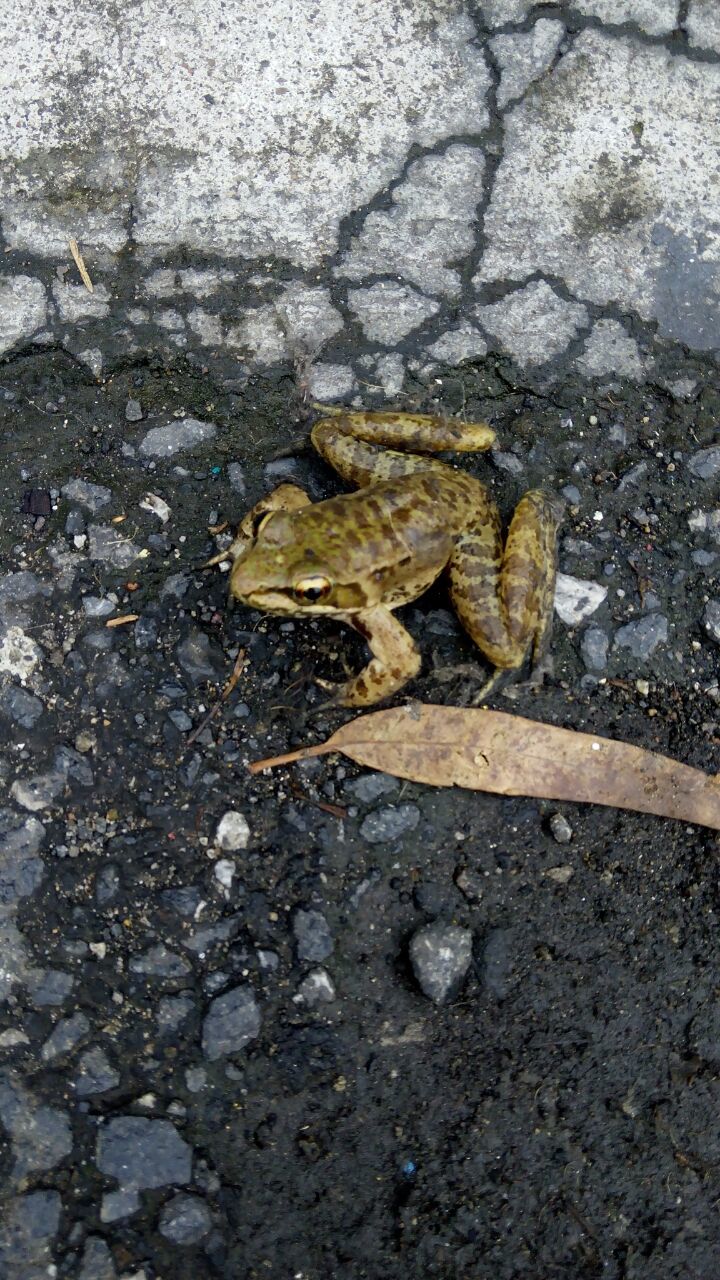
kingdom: Animalia
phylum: Chordata
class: Amphibia
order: Anura
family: Ranidae
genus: Lithobates
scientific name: Lithobates maculatus
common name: Highland frog
